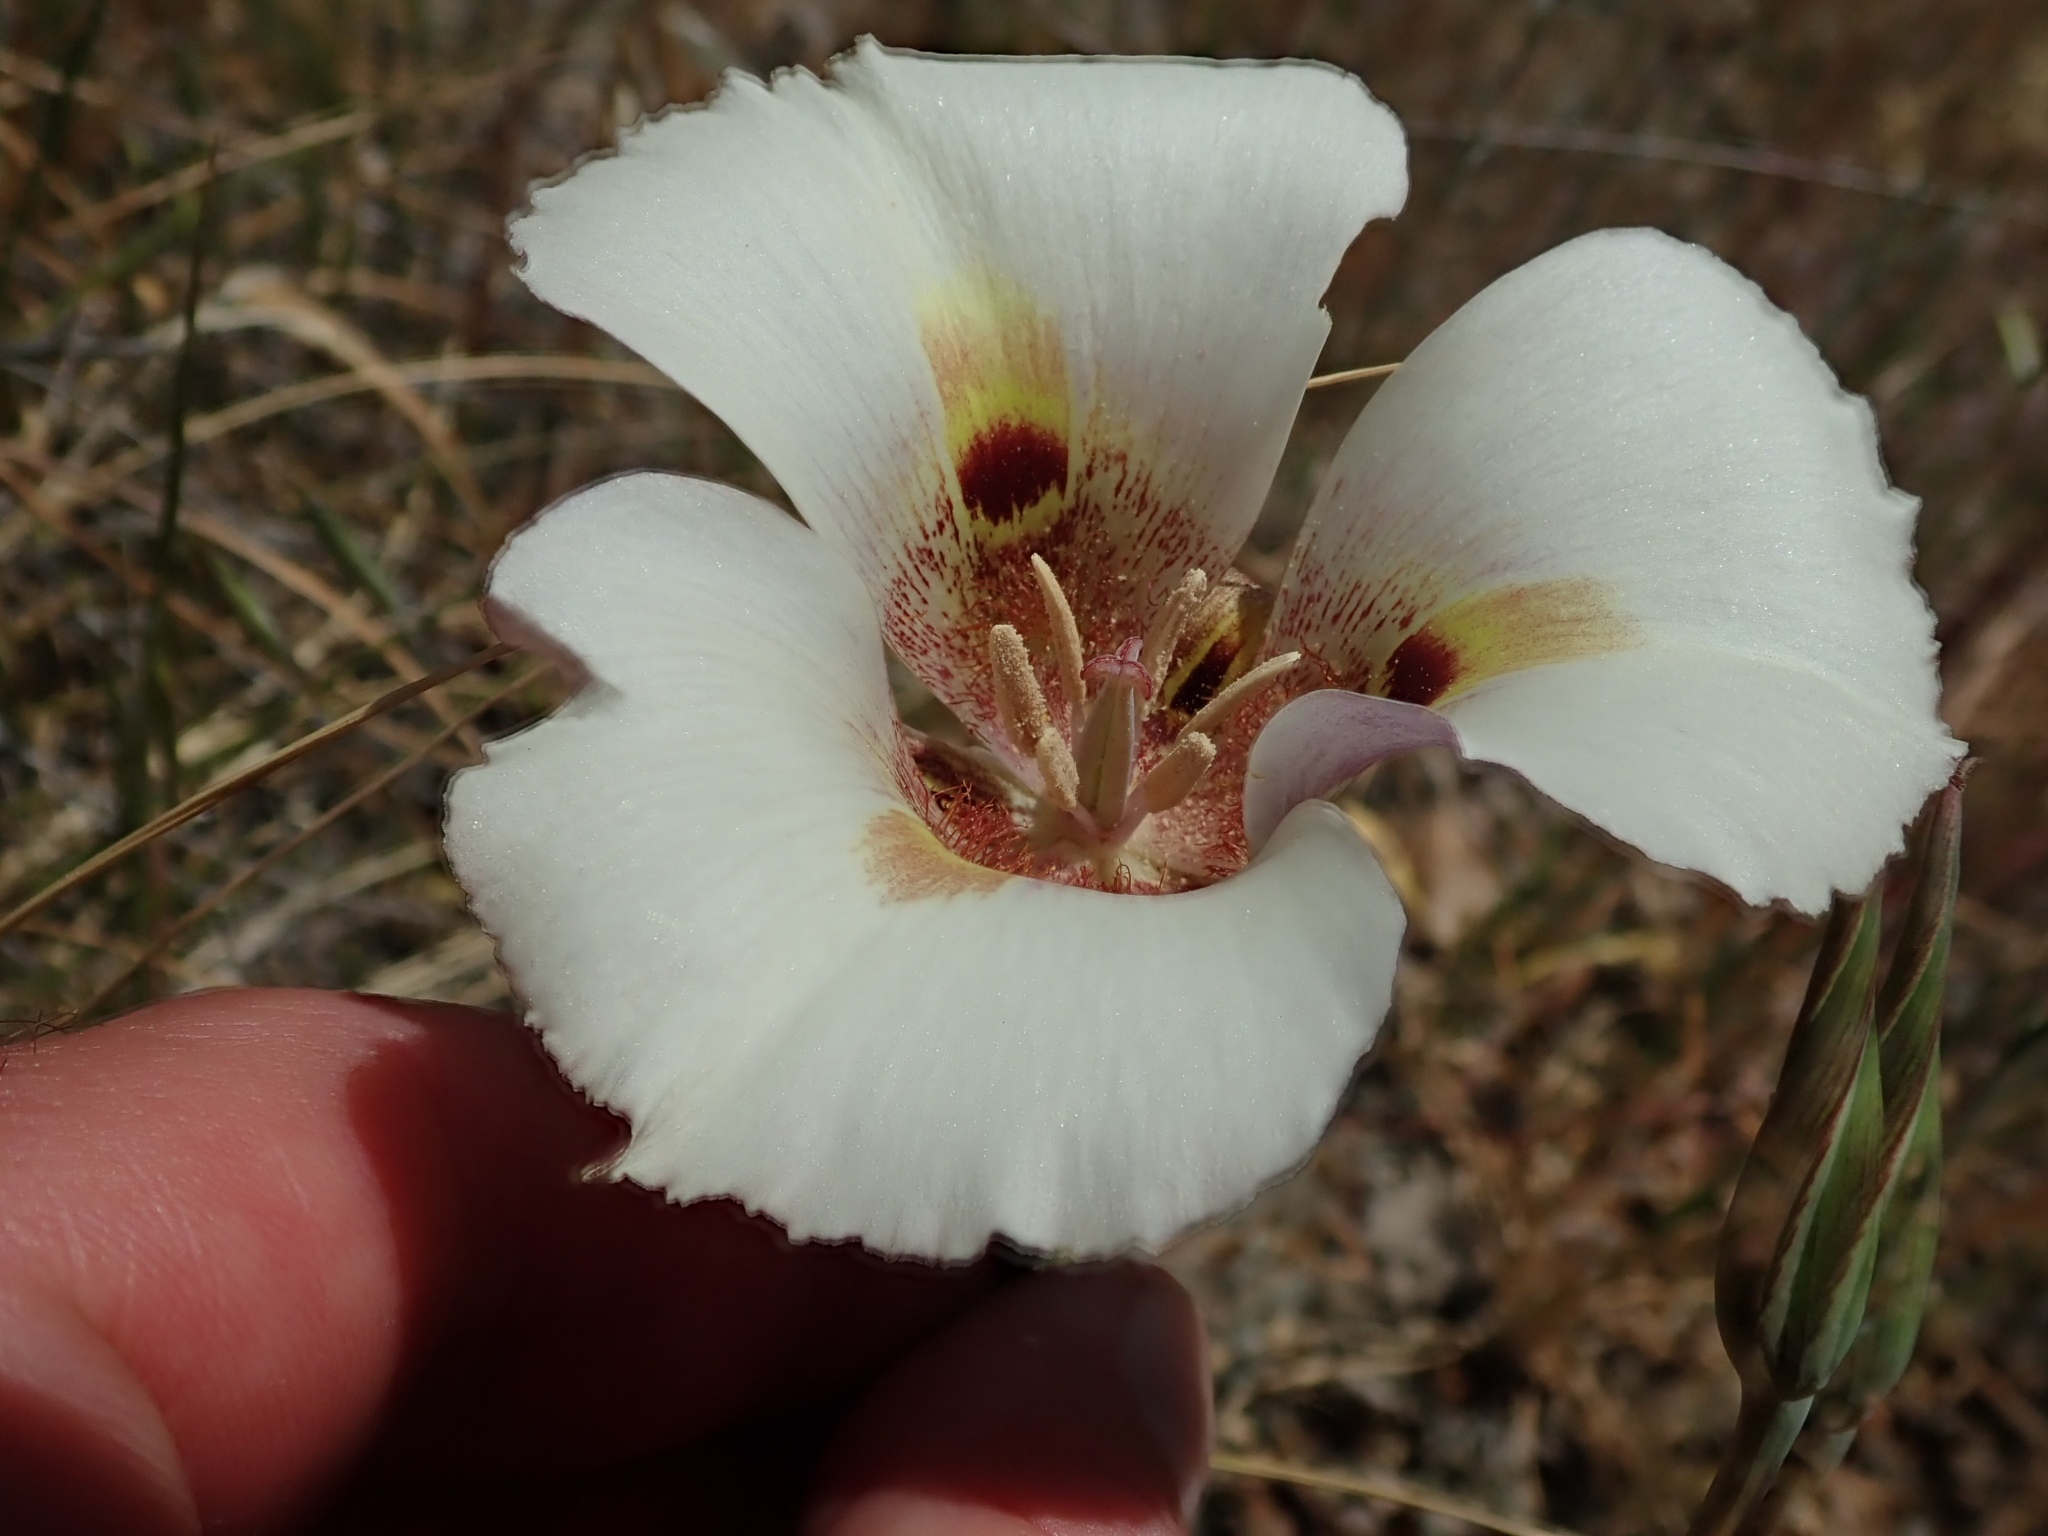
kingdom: Plantae
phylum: Tracheophyta
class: Liliopsida
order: Liliales
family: Liliaceae
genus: Calochortus
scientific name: Calochortus argillosus
